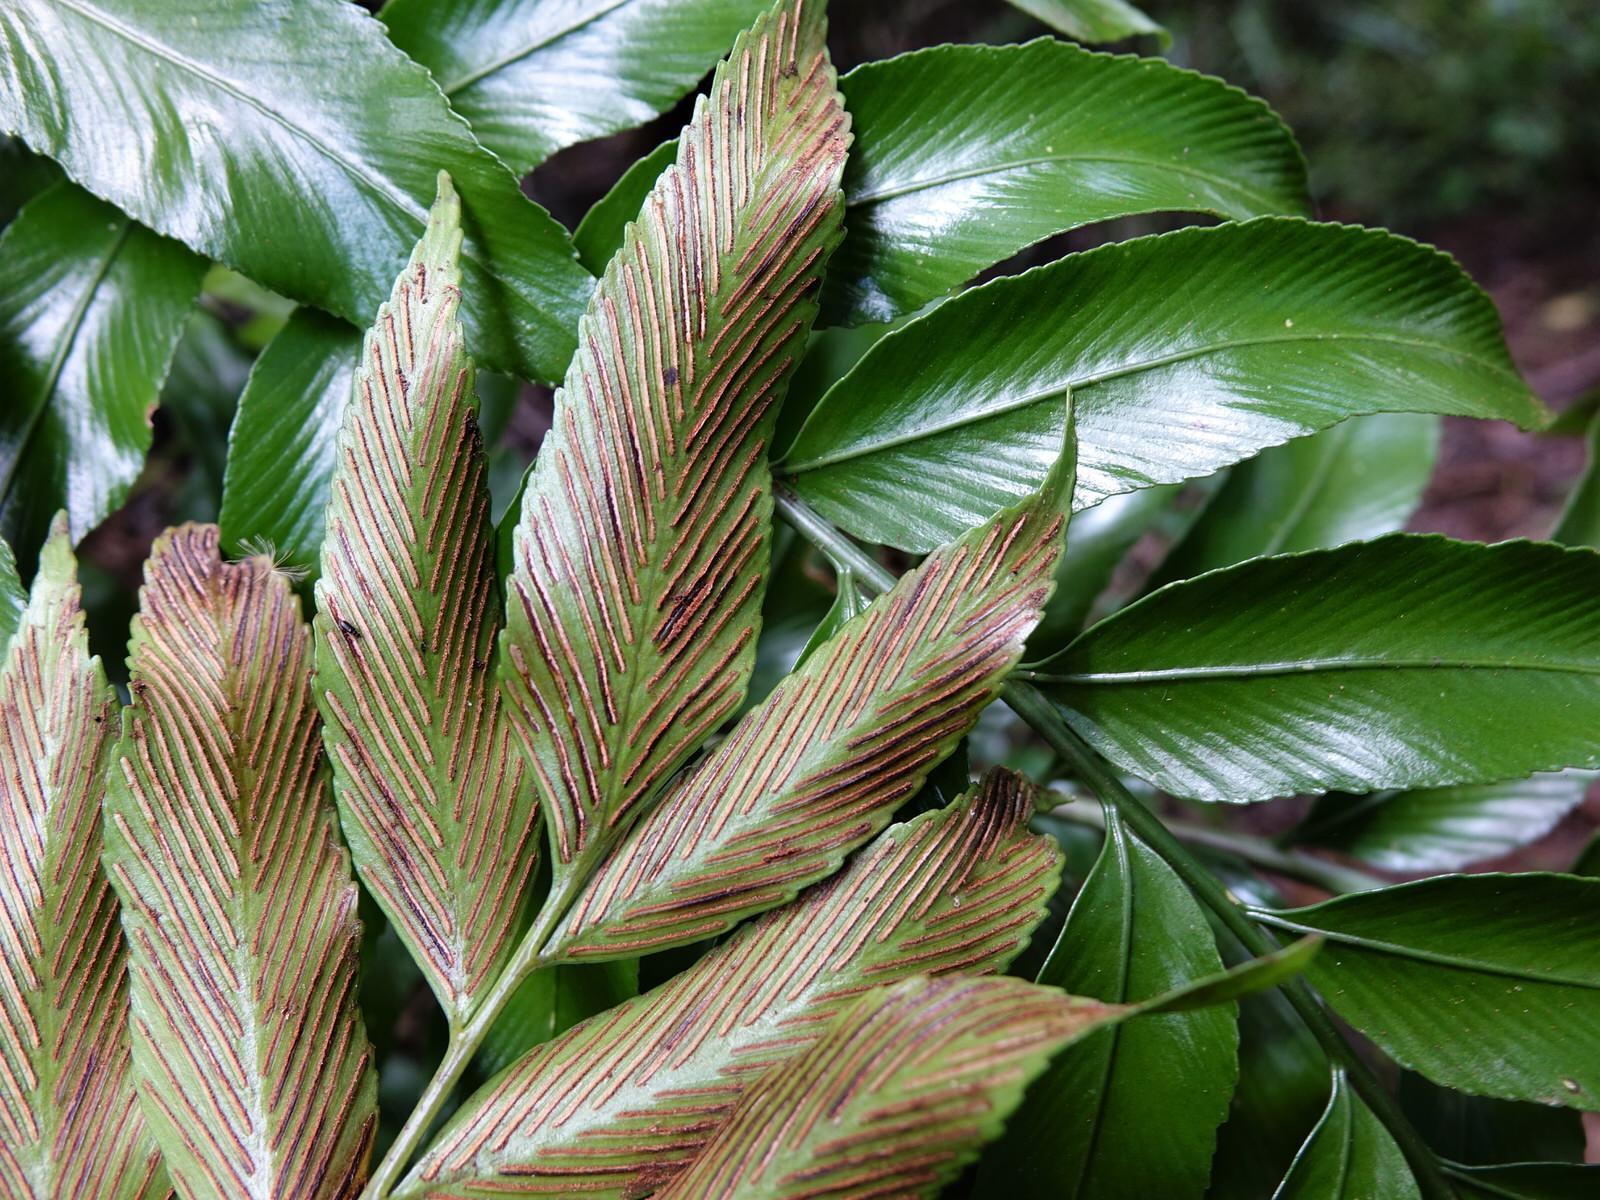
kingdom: Plantae
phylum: Tracheophyta
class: Polypodiopsida
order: Polypodiales
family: Aspleniaceae
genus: Asplenium
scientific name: Asplenium oblongifolium
